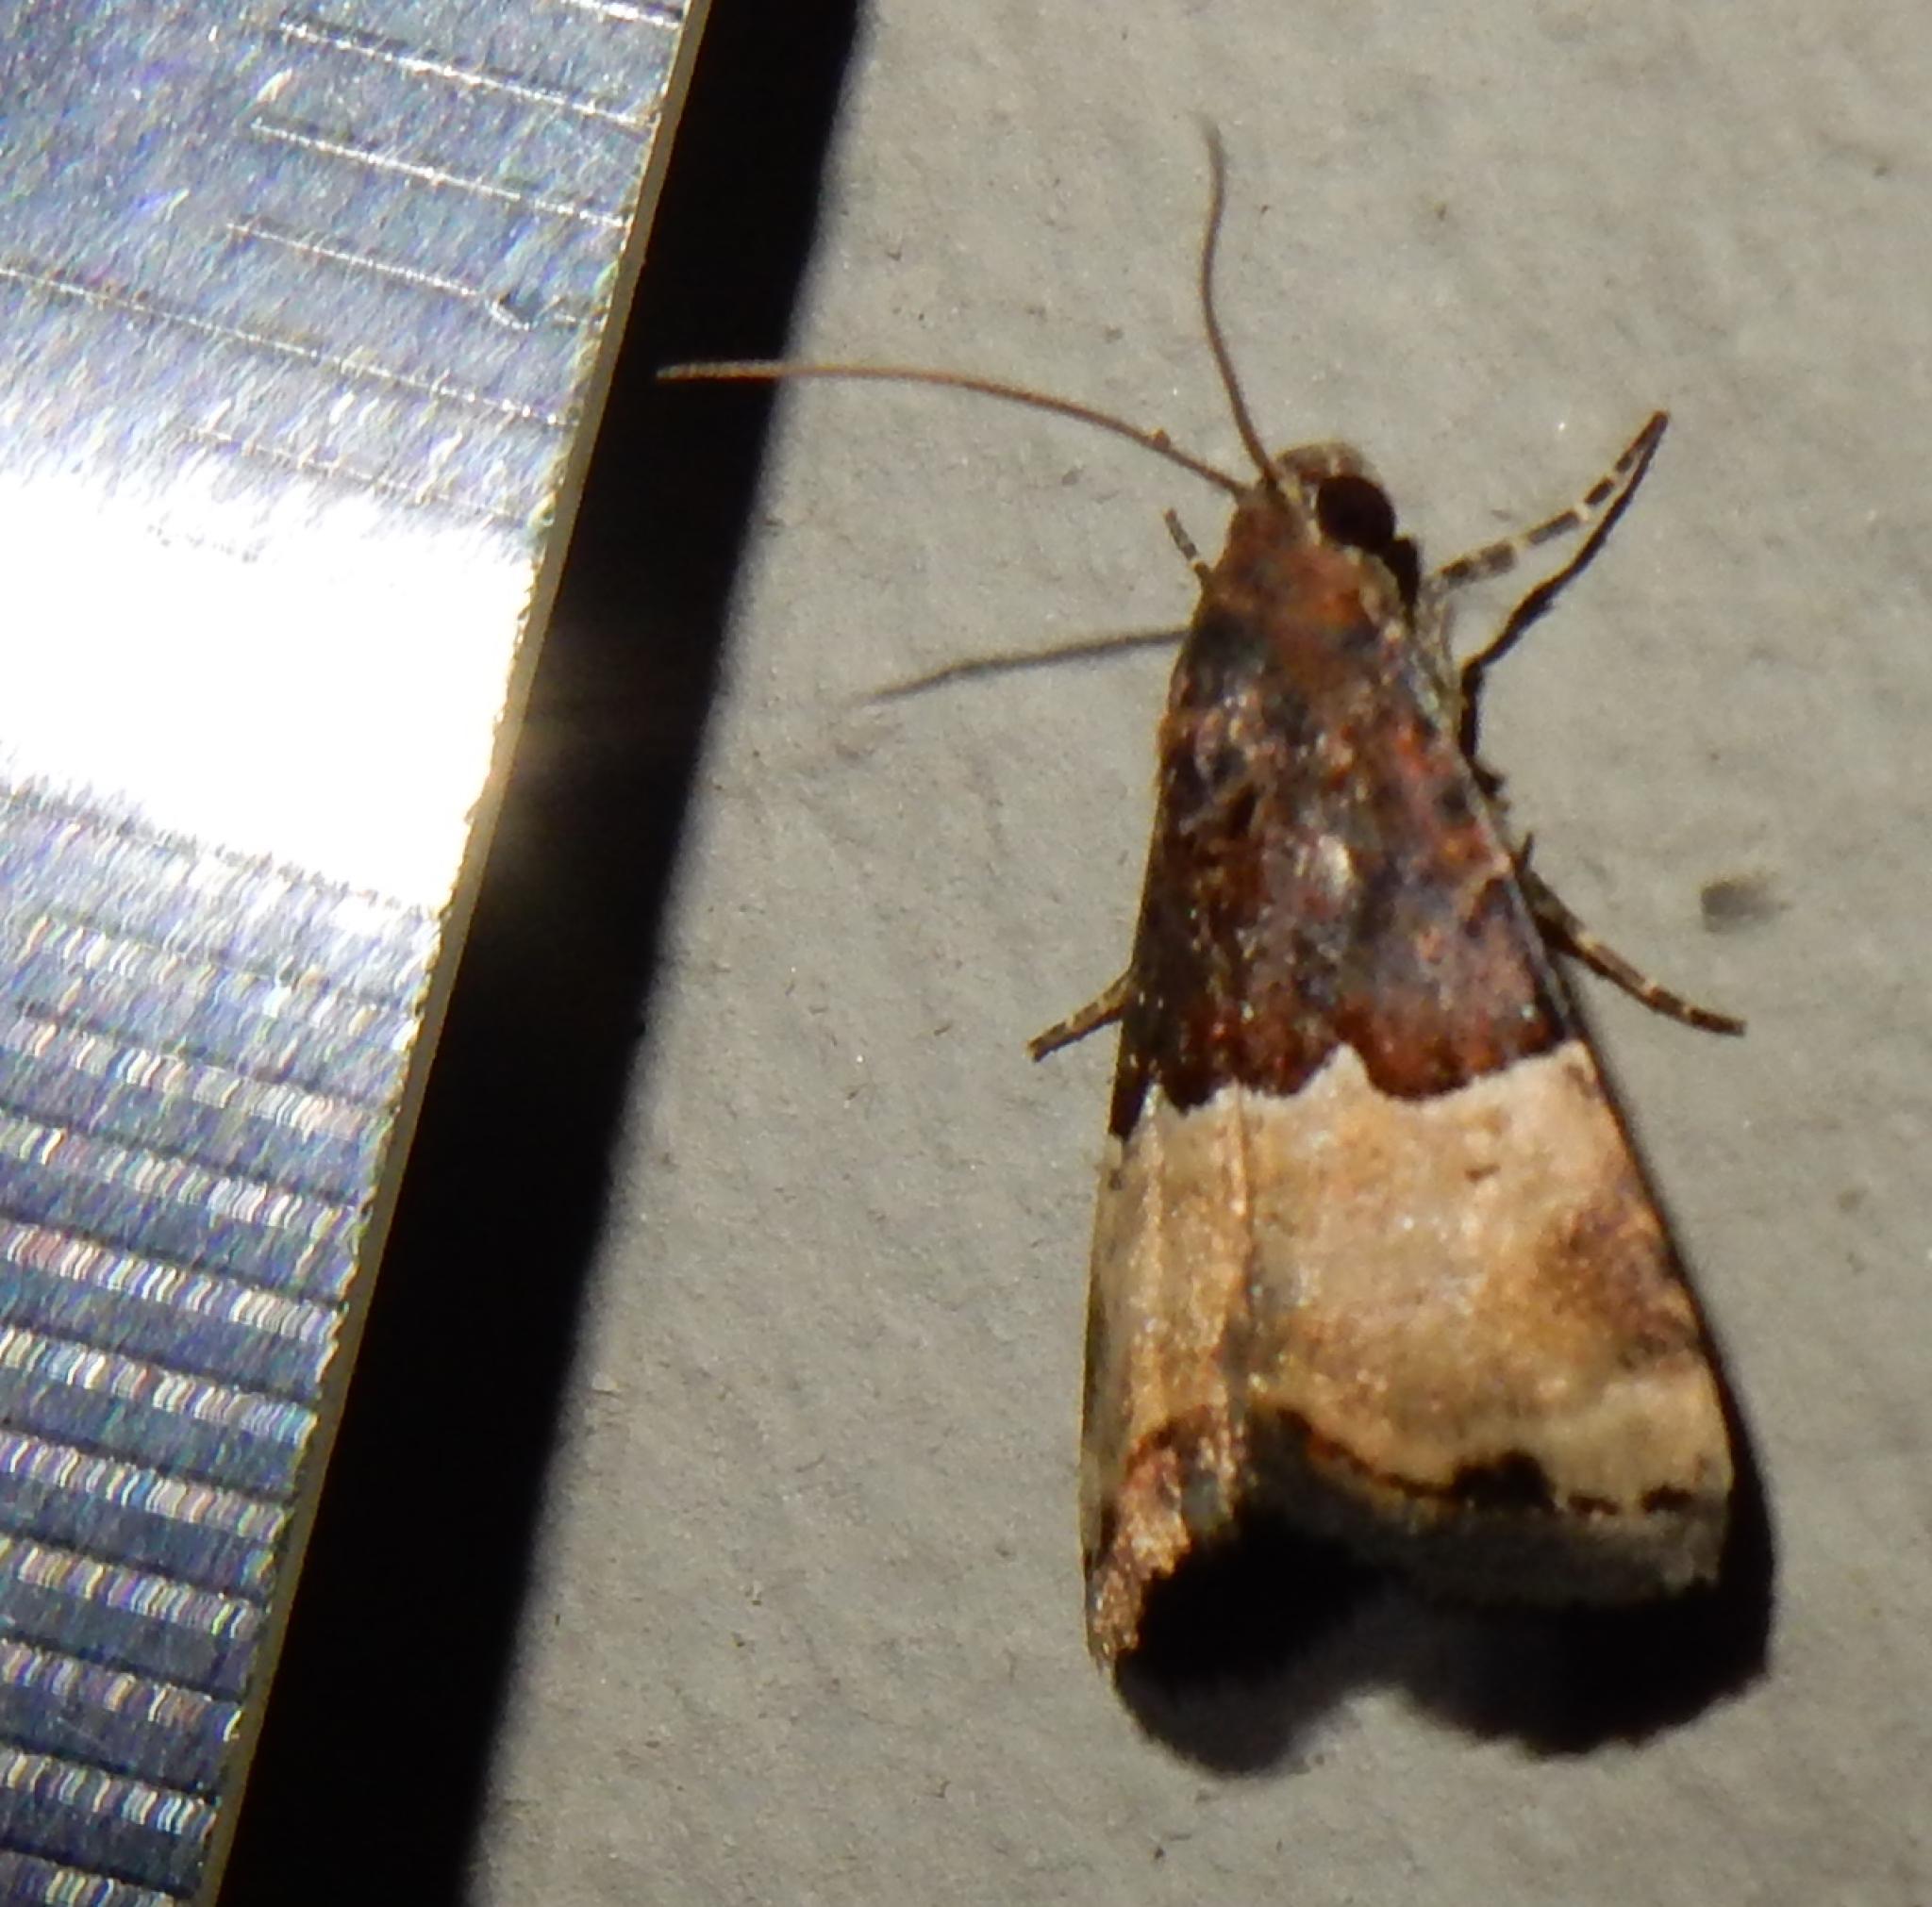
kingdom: Animalia
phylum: Arthropoda
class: Insecta
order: Lepidoptera
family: Noctuidae
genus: Ozarba
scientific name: Ozarba hemiochra
